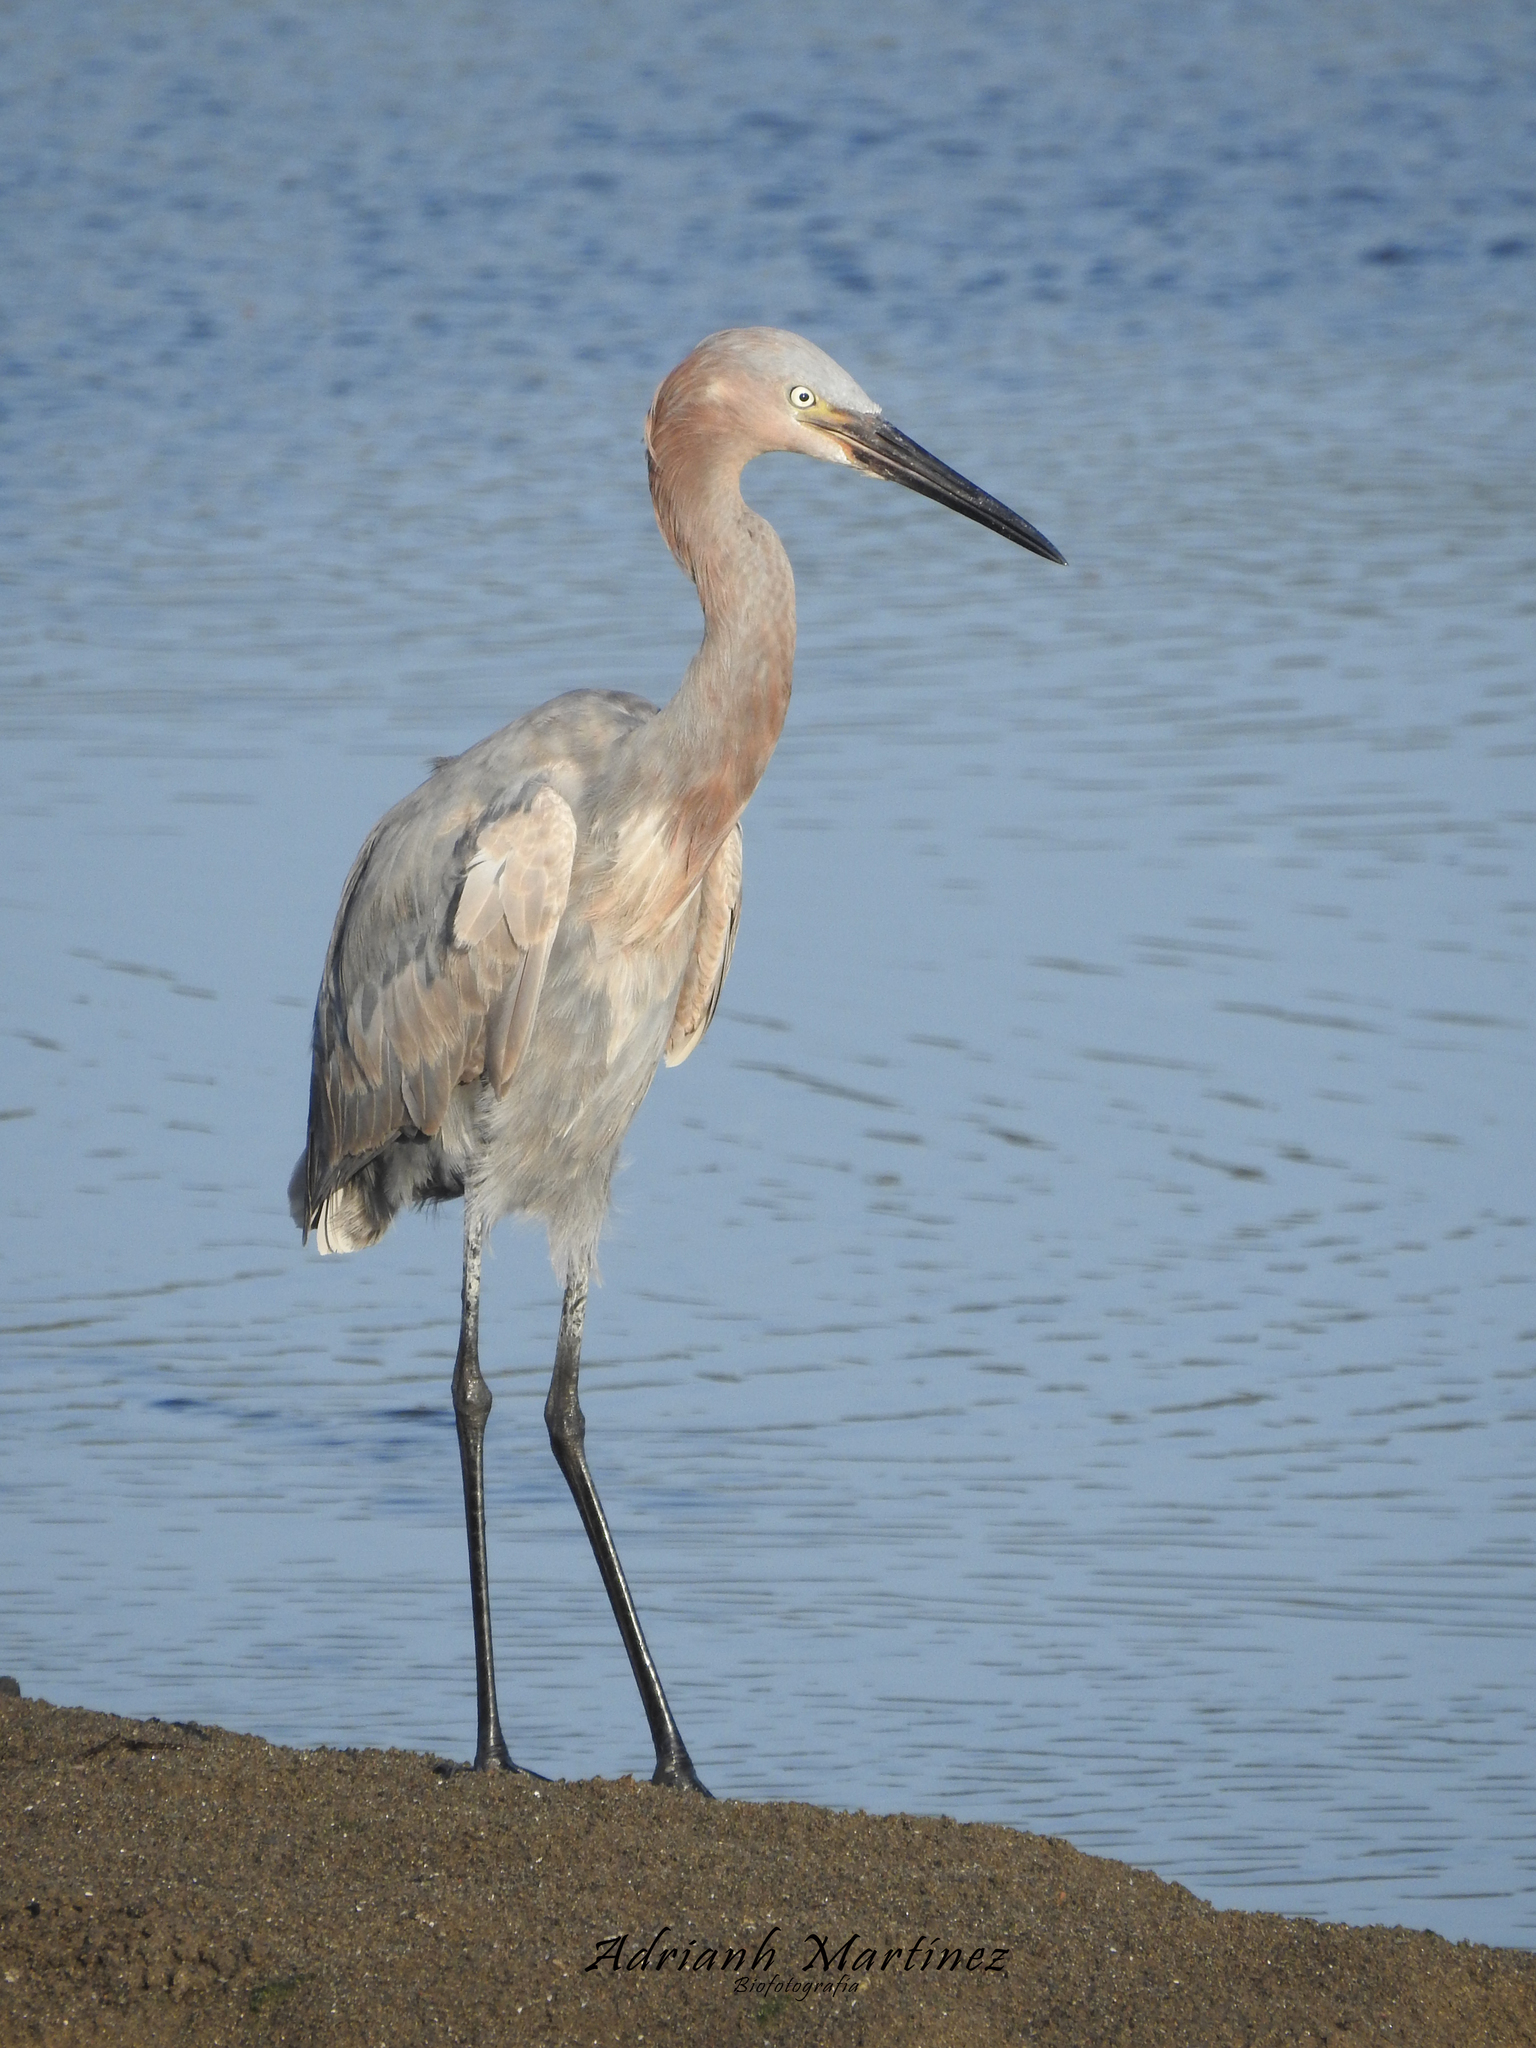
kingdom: Animalia
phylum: Chordata
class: Aves
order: Pelecaniformes
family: Ardeidae
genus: Egretta
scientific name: Egretta rufescens
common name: Reddish egret
